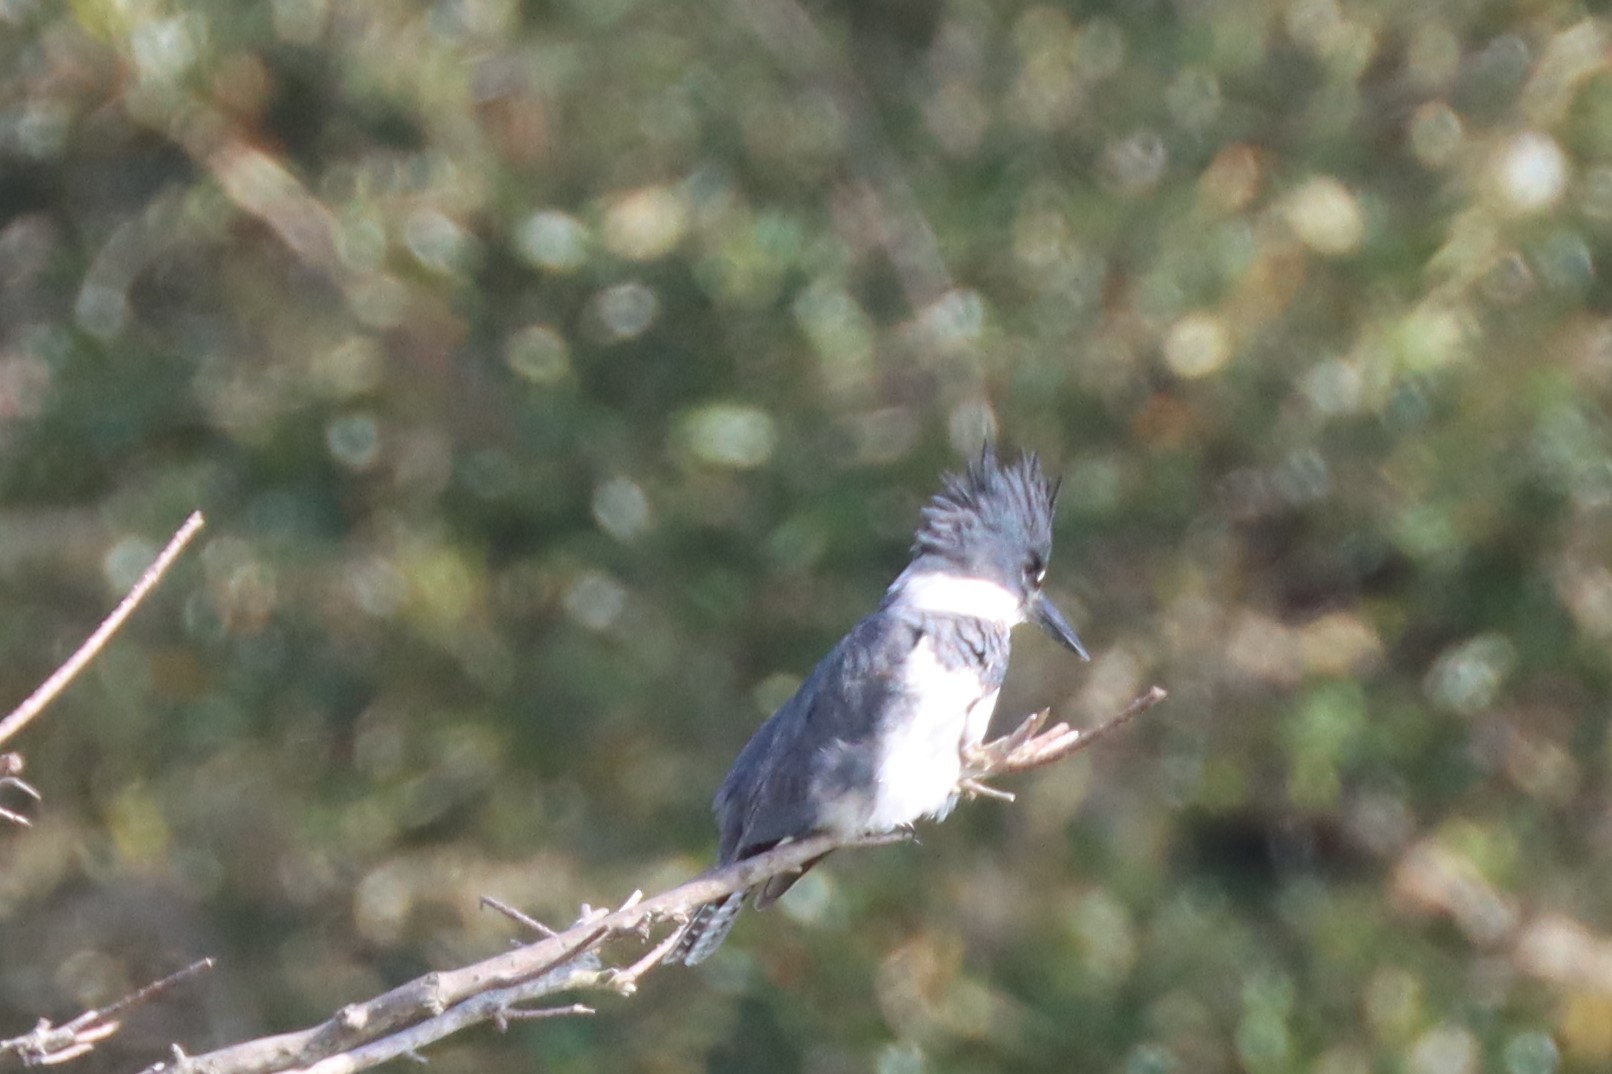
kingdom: Animalia
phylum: Chordata
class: Aves
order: Coraciiformes
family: Alcedinidae
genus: Megaceryle
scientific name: Megaceryle alcyon
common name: Belted kingfisher
